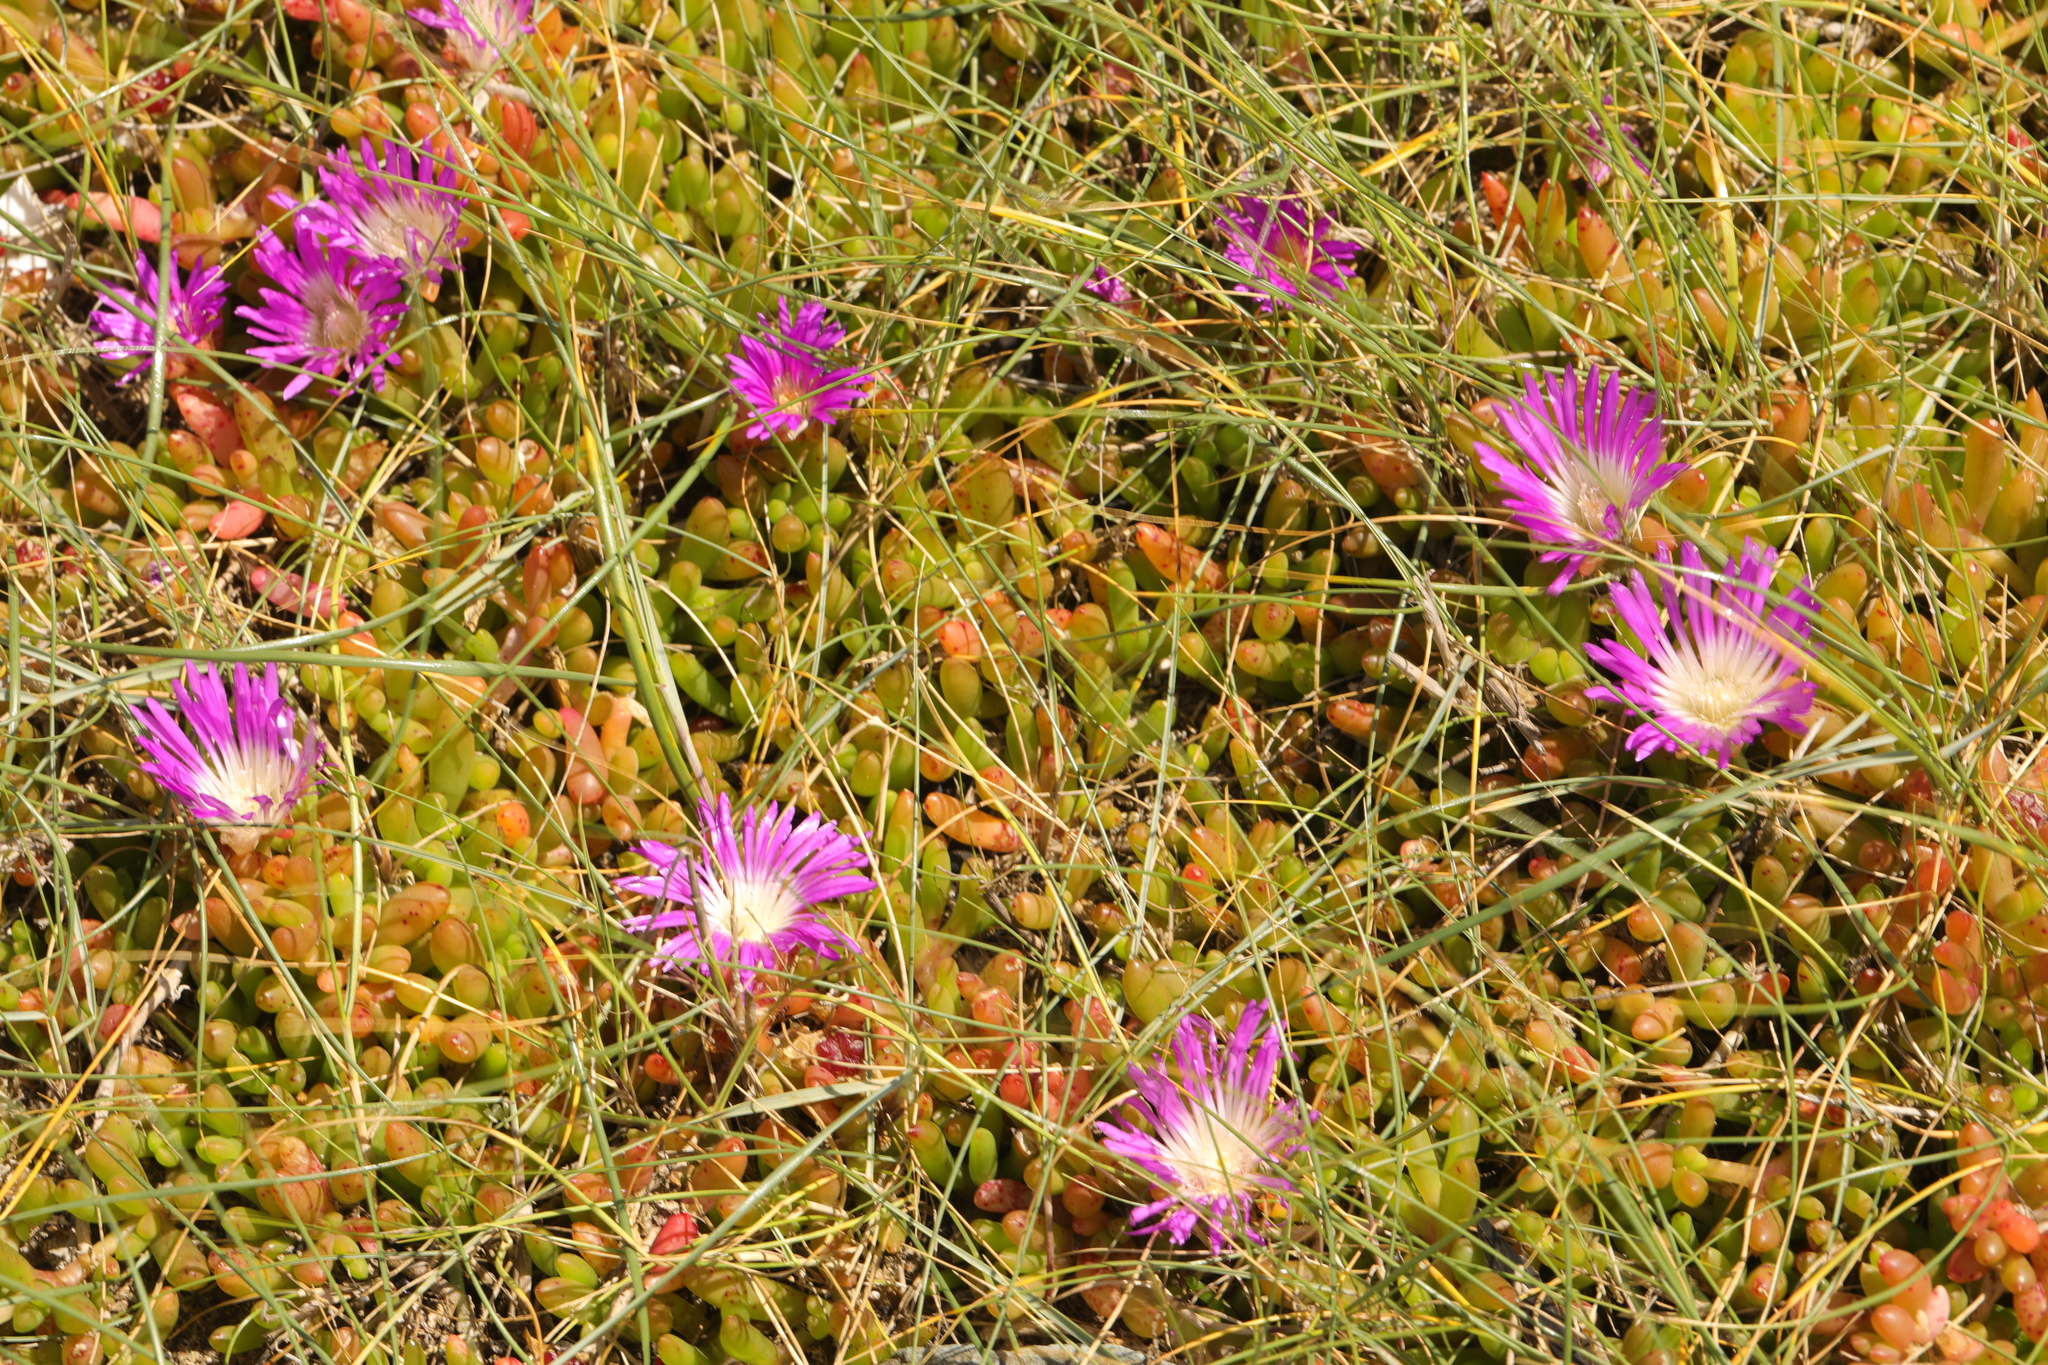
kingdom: Plantae
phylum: Tracheophyta
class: Magnoliopsida
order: Caryophyllales
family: Aizoaceae
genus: Disphyma
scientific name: Disphyma crassifolium
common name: Purple dewplant
